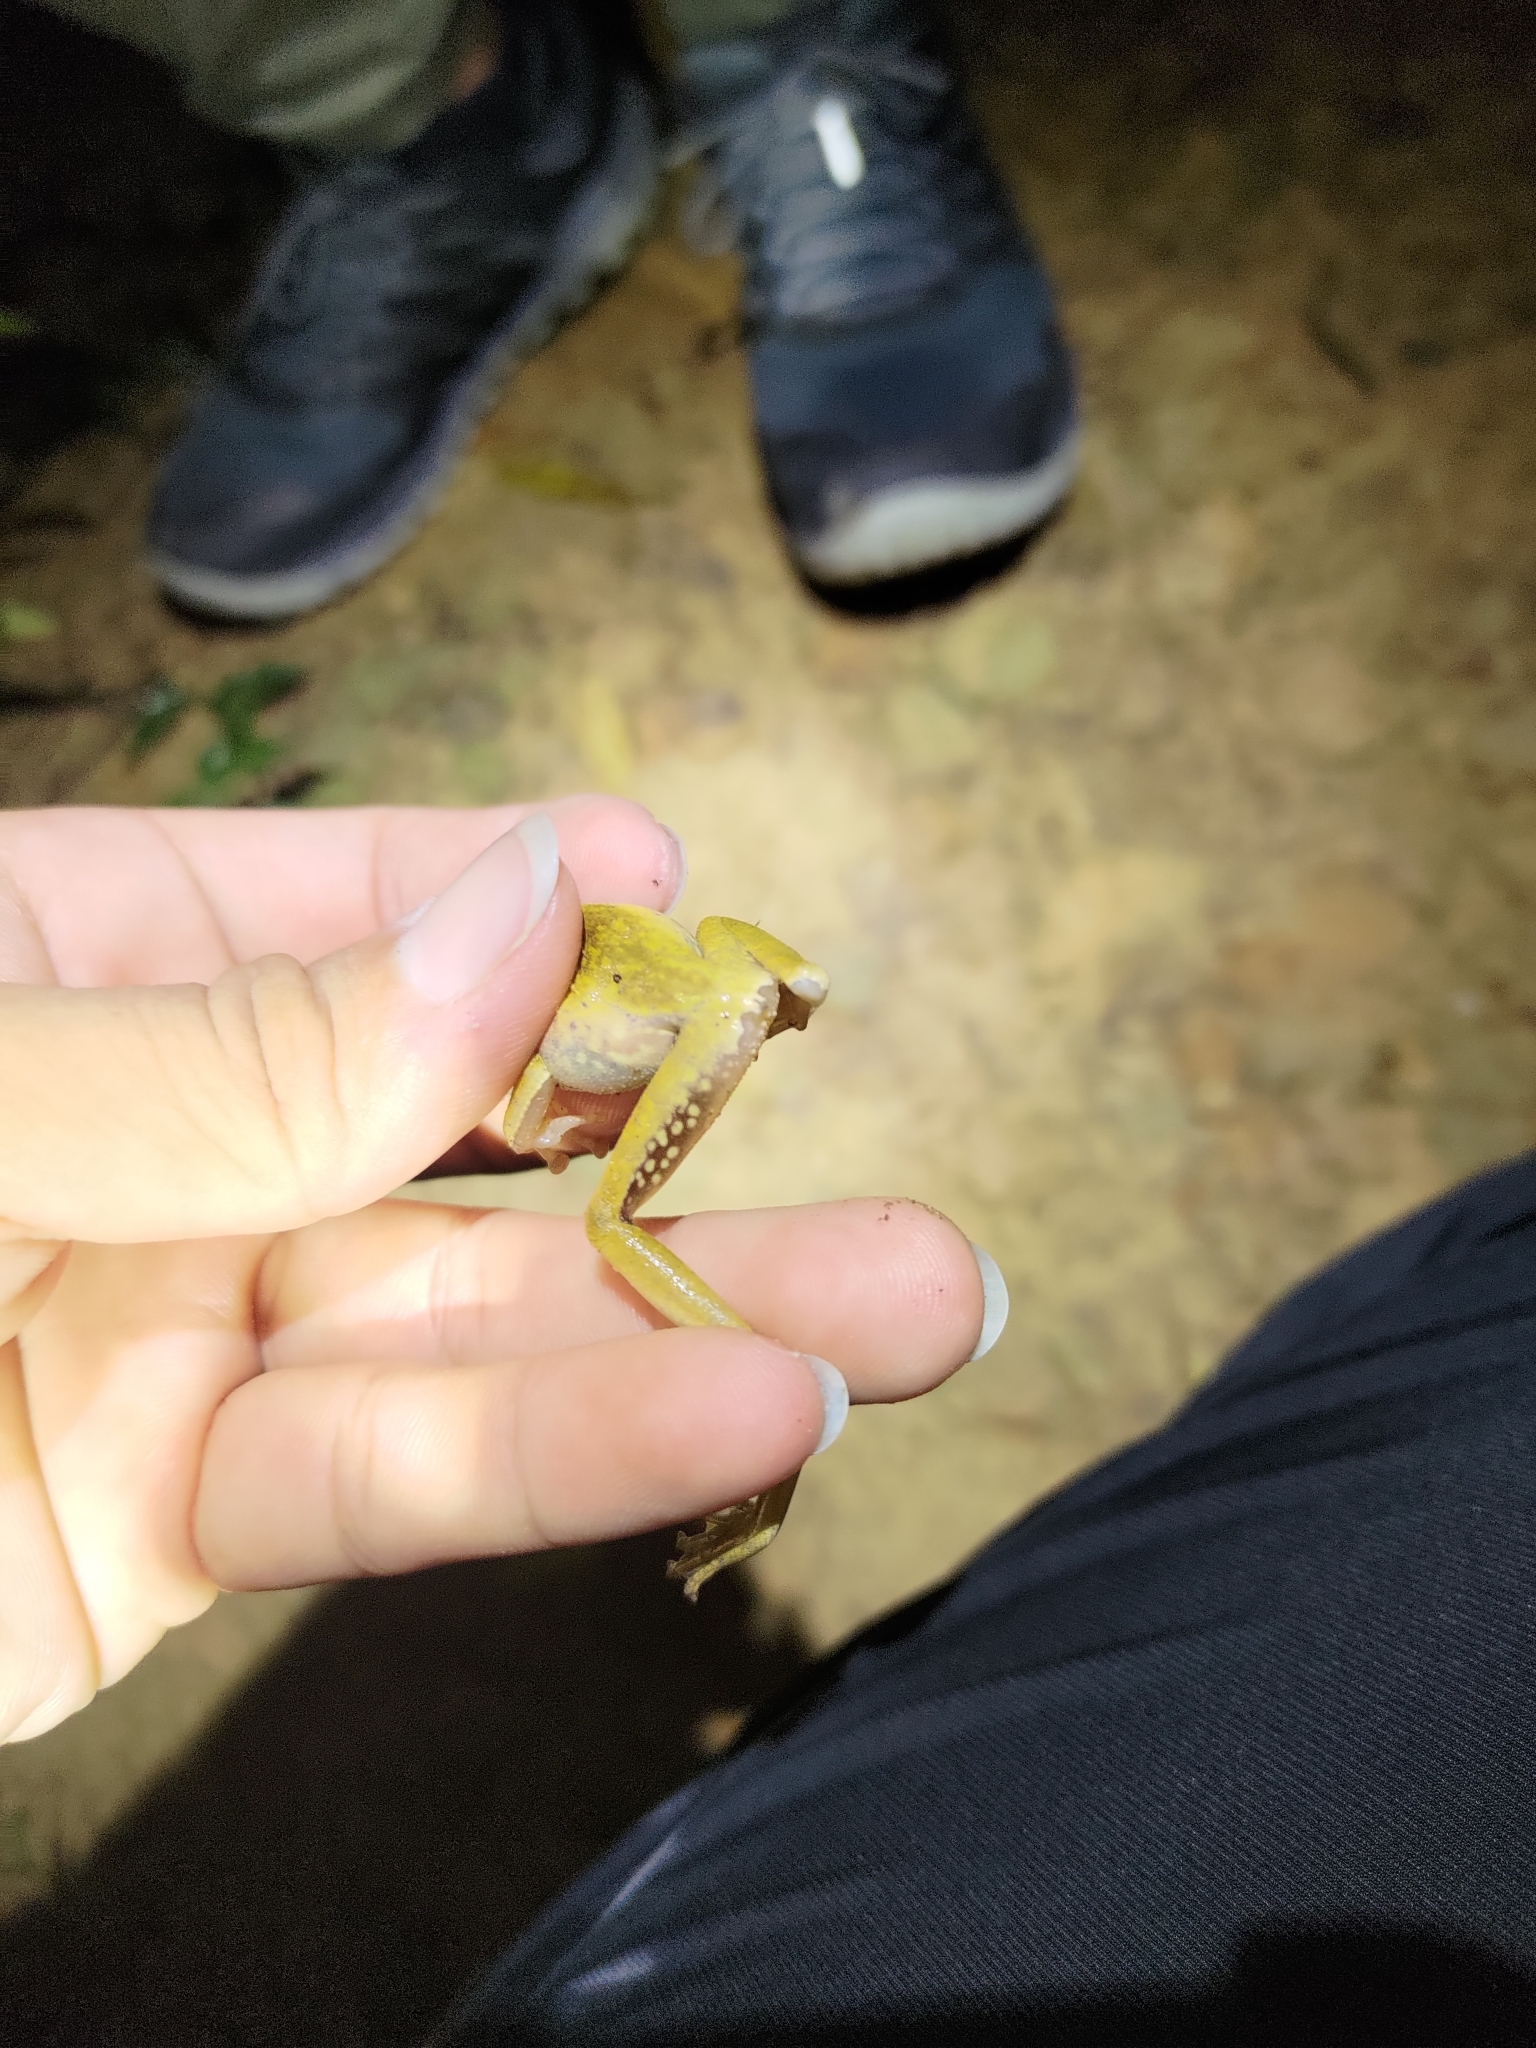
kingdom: Animalia
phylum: Chordata
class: Amphibia
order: Anura
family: Rhacophoridae
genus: Polypedates
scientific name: Polypedates megacephalus
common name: Hong kong whipping frog
